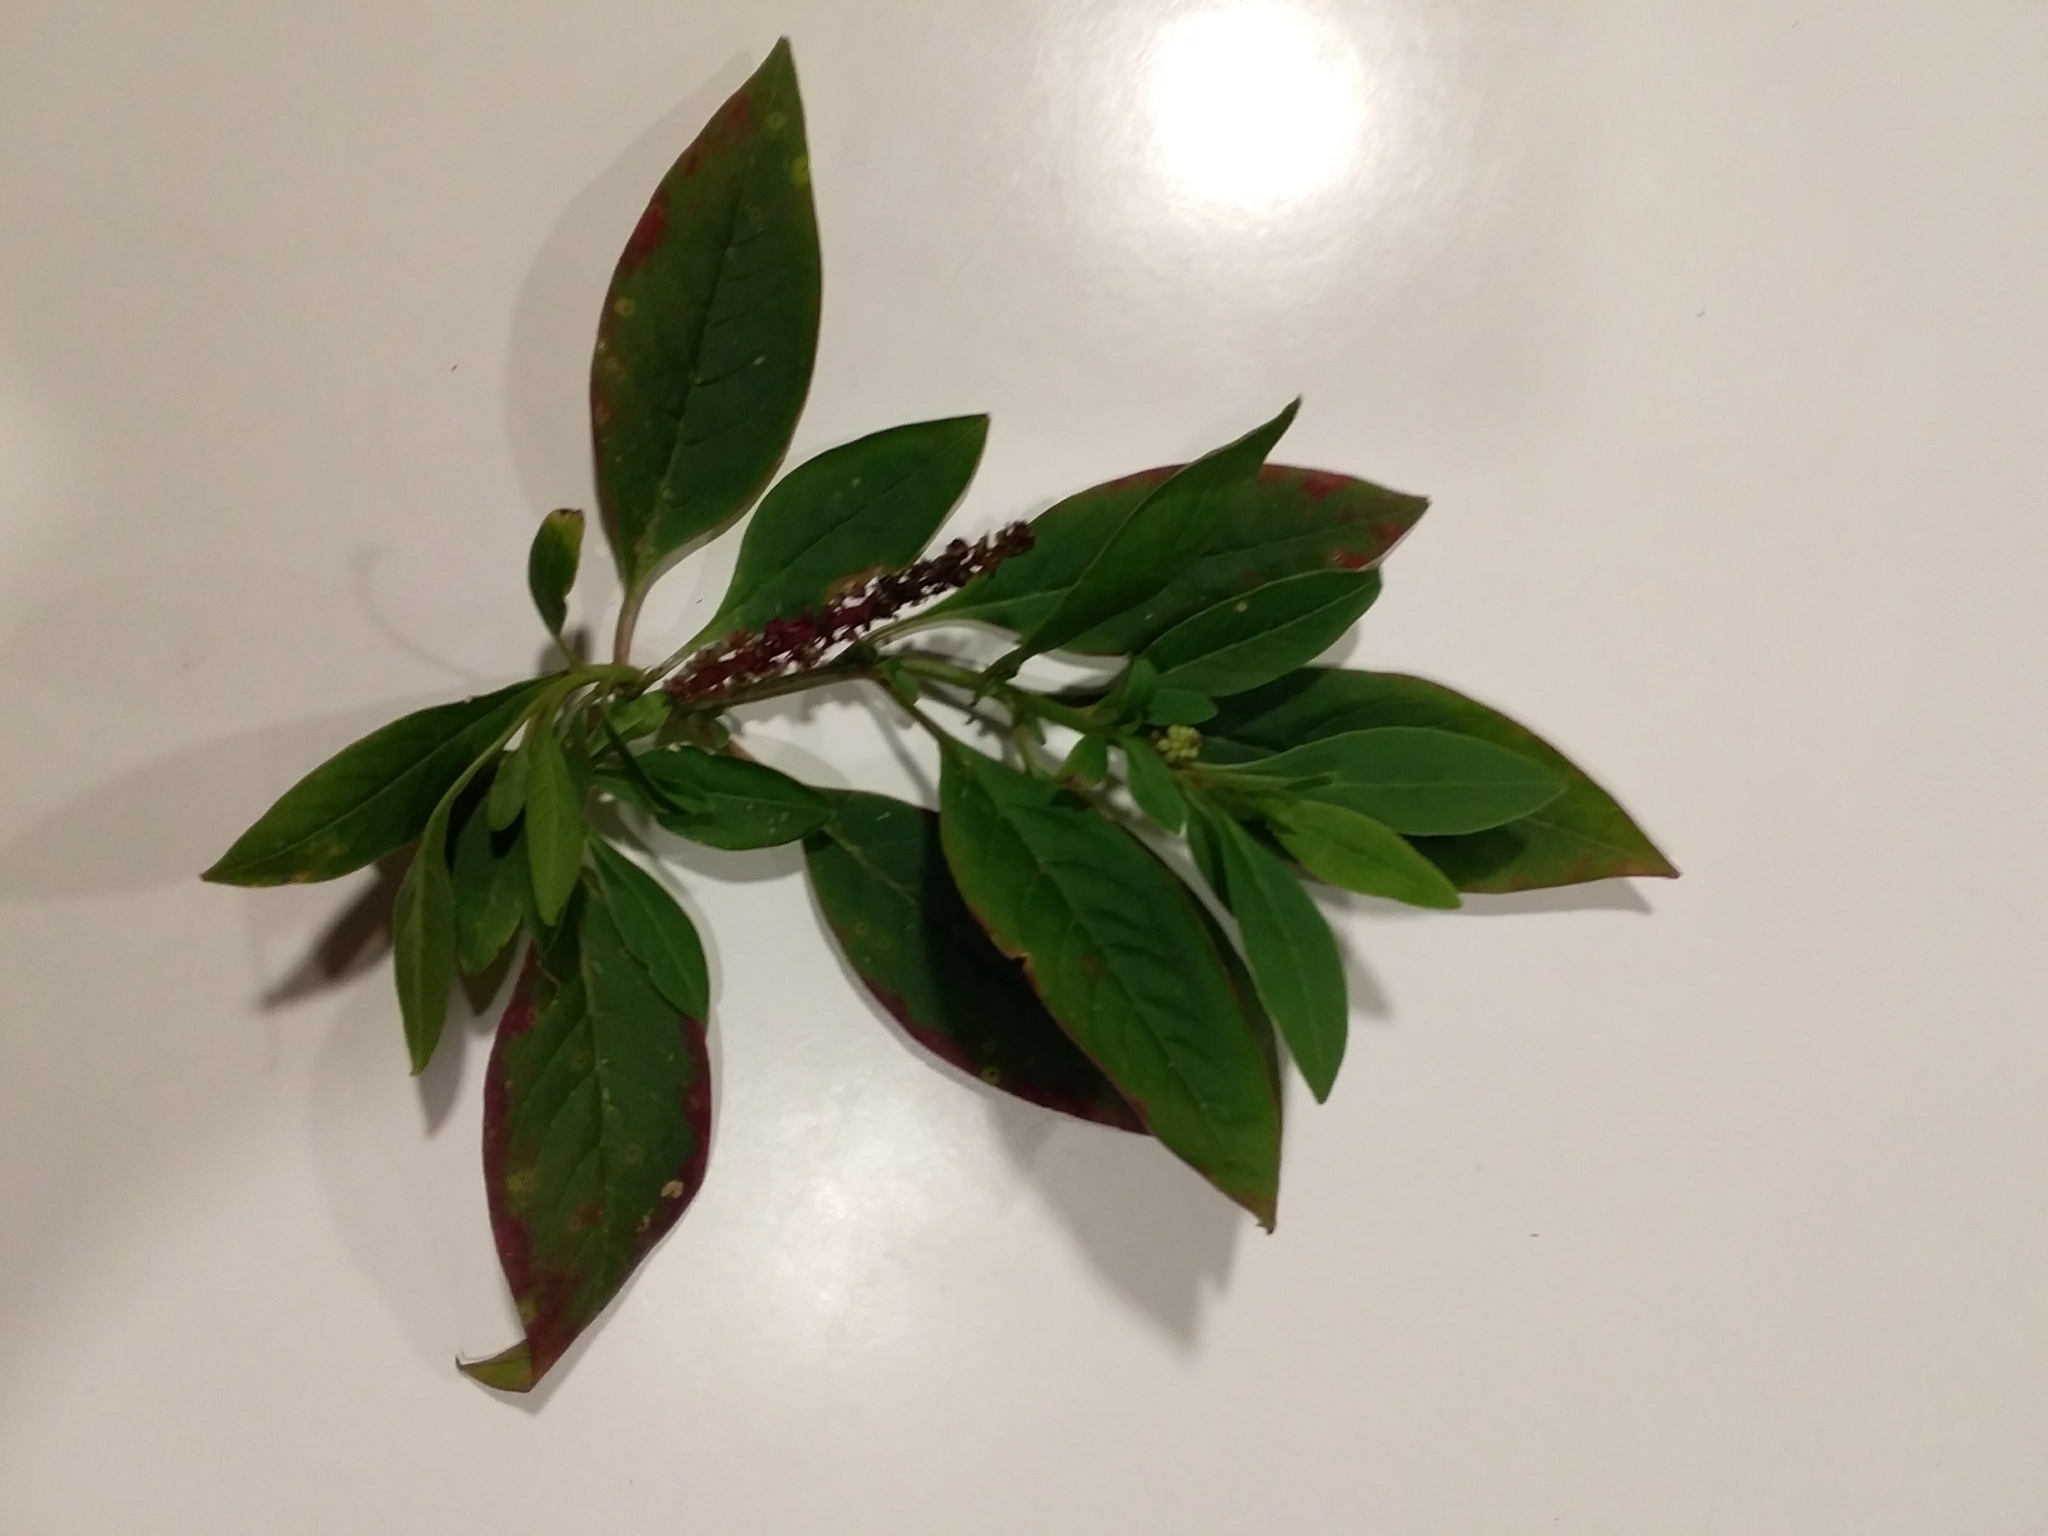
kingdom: Plantae
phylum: Tracheophyta
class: Magnoliopsida
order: Caryophyllales
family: Phytolaccaceae
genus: Phytolacca
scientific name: Phytolacca icosandra
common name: Button pokeweed
